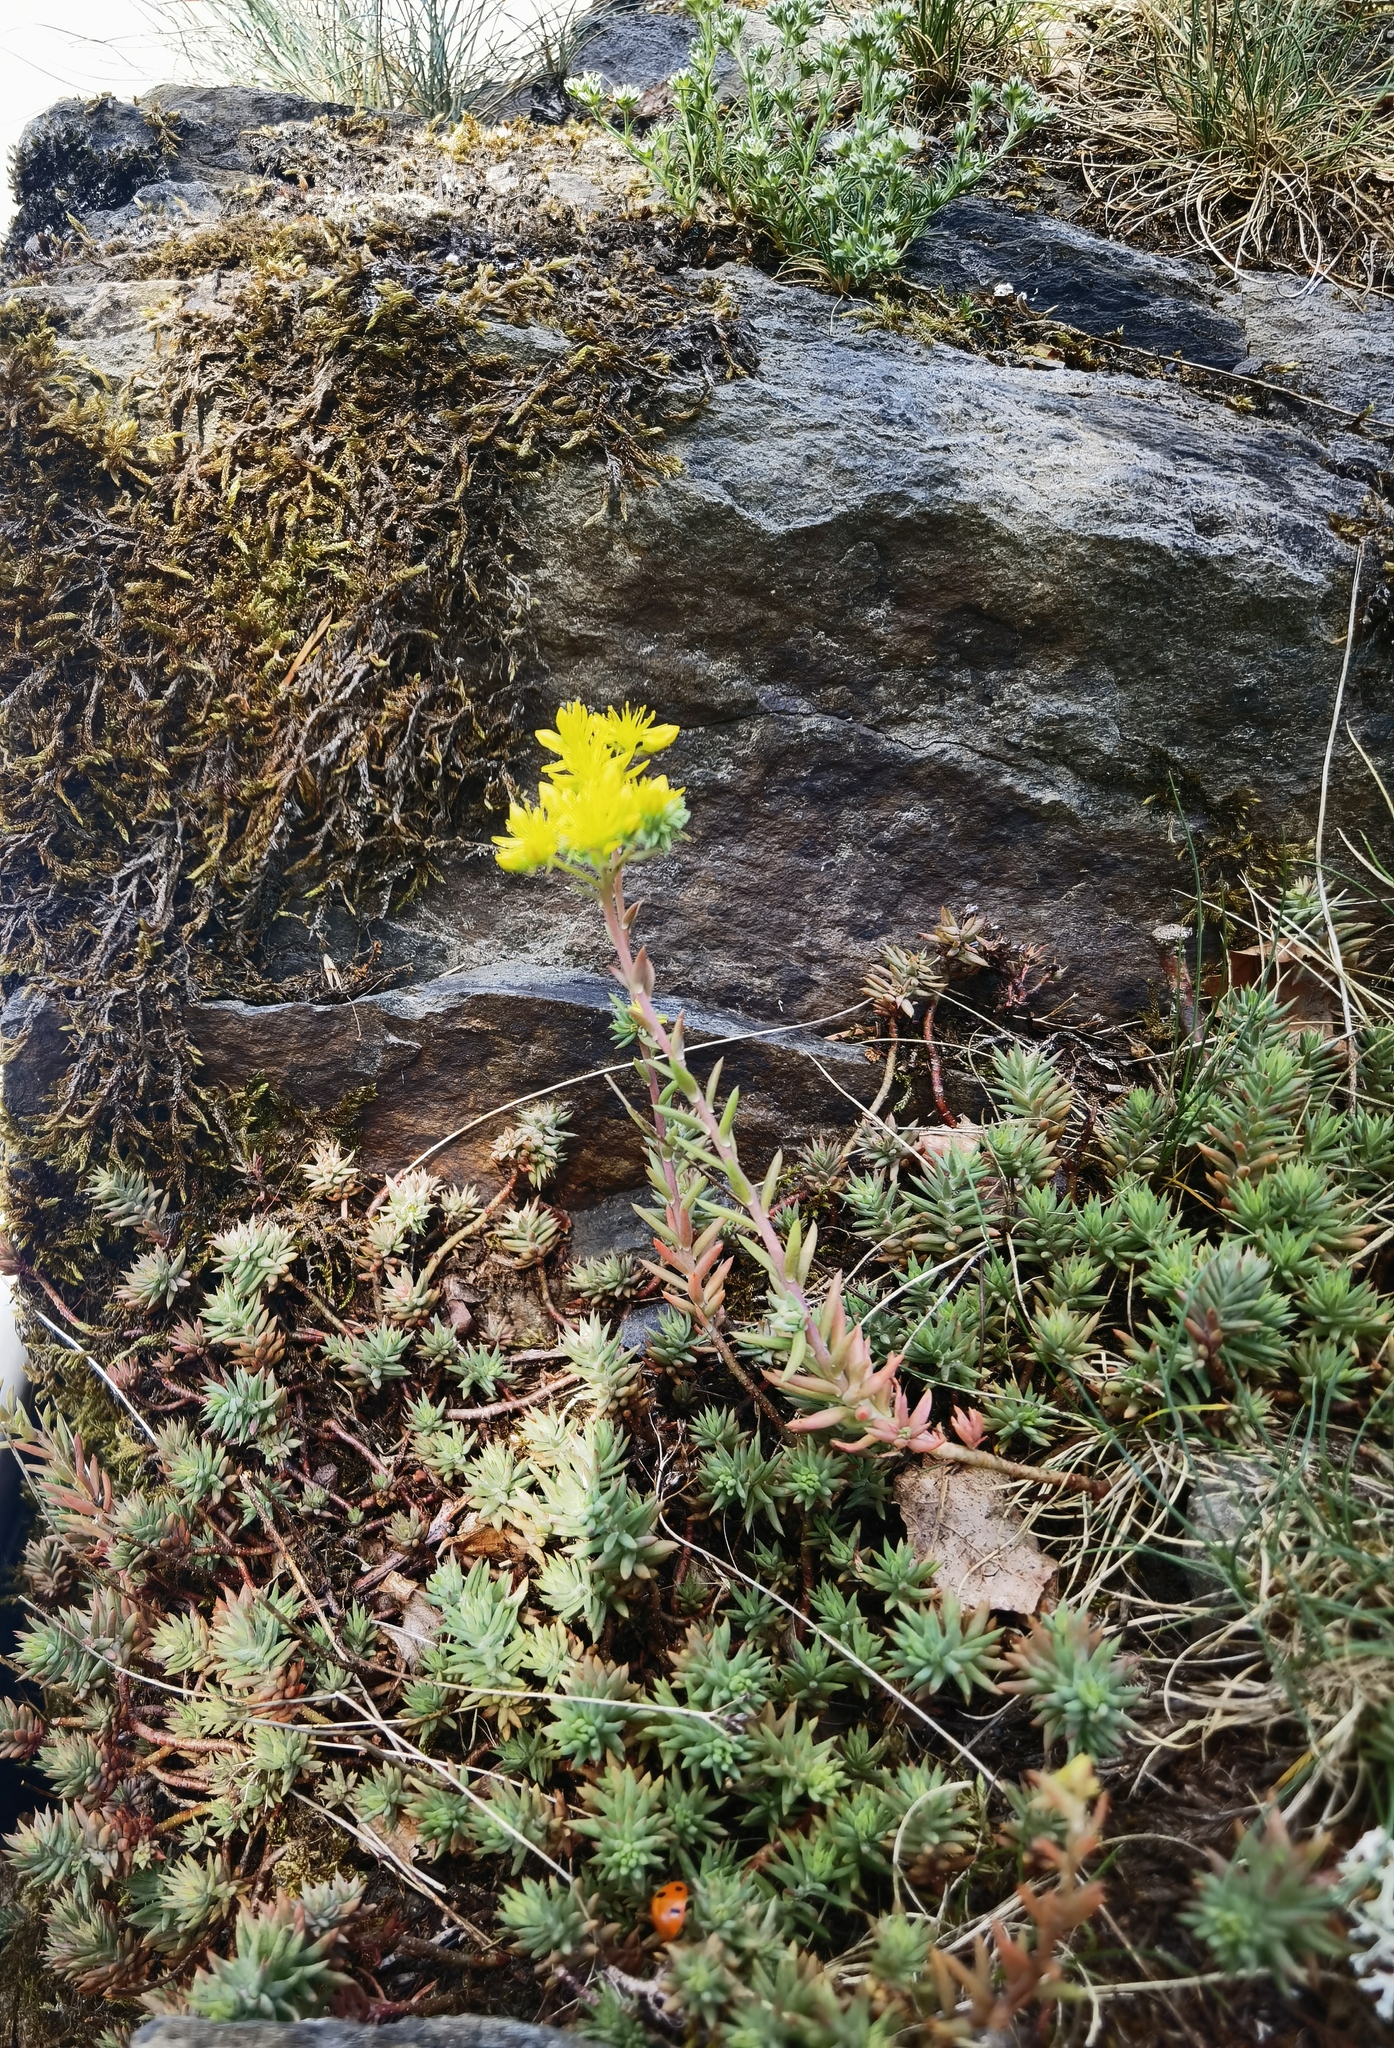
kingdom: Plantae
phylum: Tracheophyta
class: Magnoliopsida
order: Saxifragales
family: Crassulaceae
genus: Petrosedum
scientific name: Petrosedum rupestre
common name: Jenny's stonecrop
